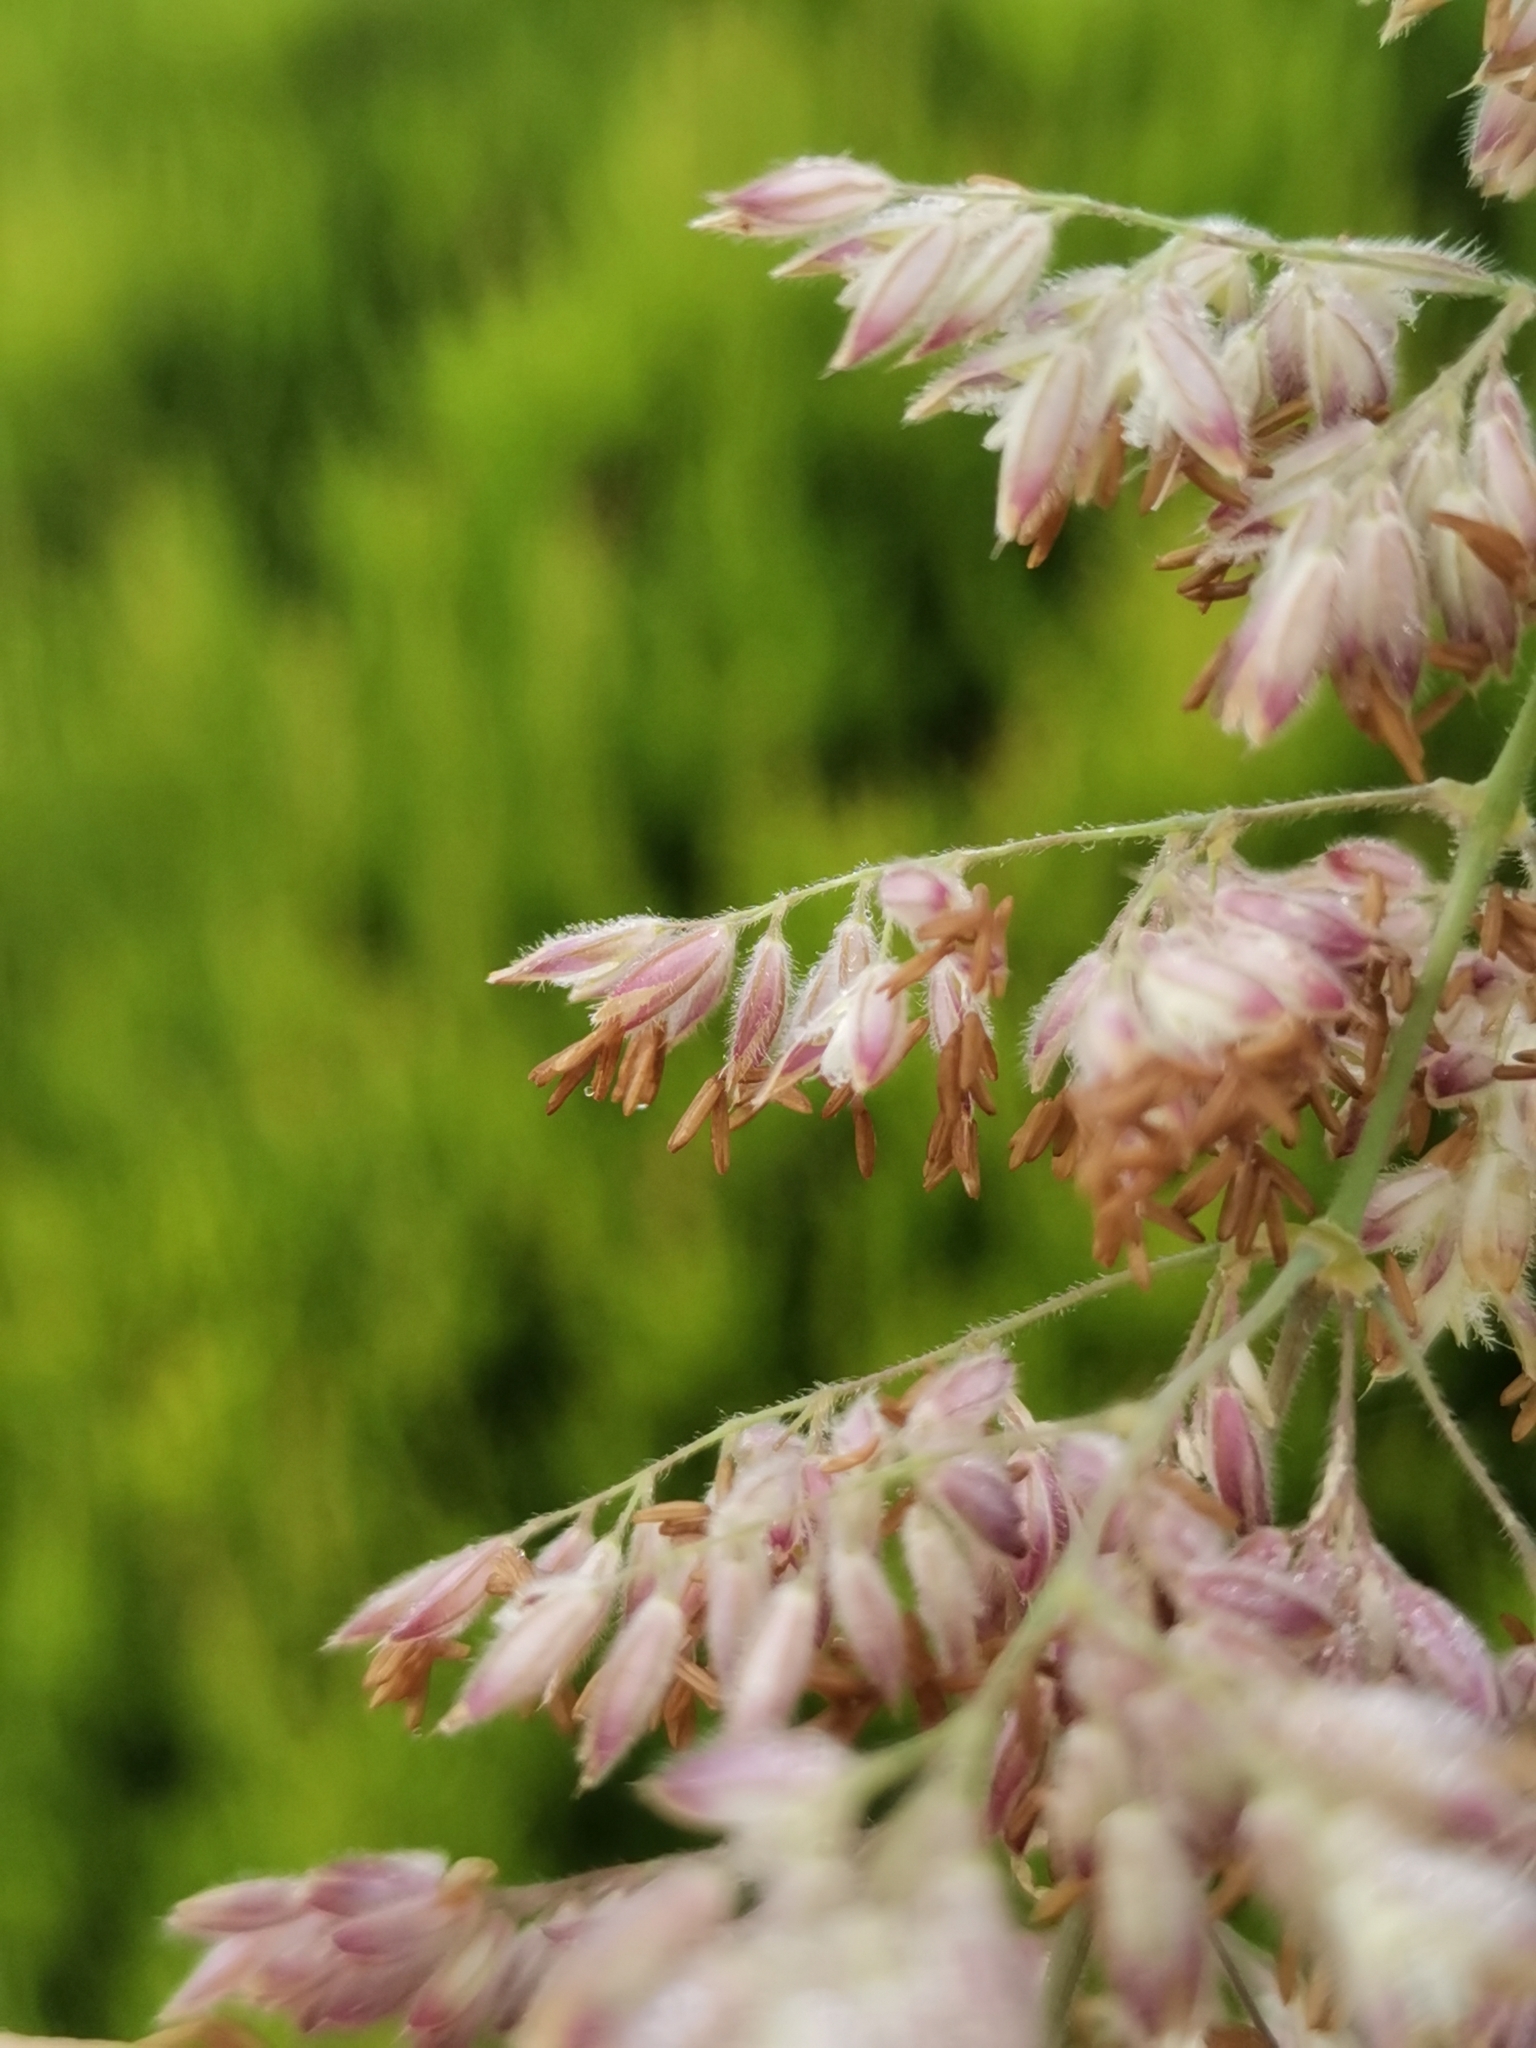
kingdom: Plantae
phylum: Tracheophyta
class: Liliopsida
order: Poales
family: Poaceae
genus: Holcus
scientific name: Holcus lanatus
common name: Yorkshire-fog
